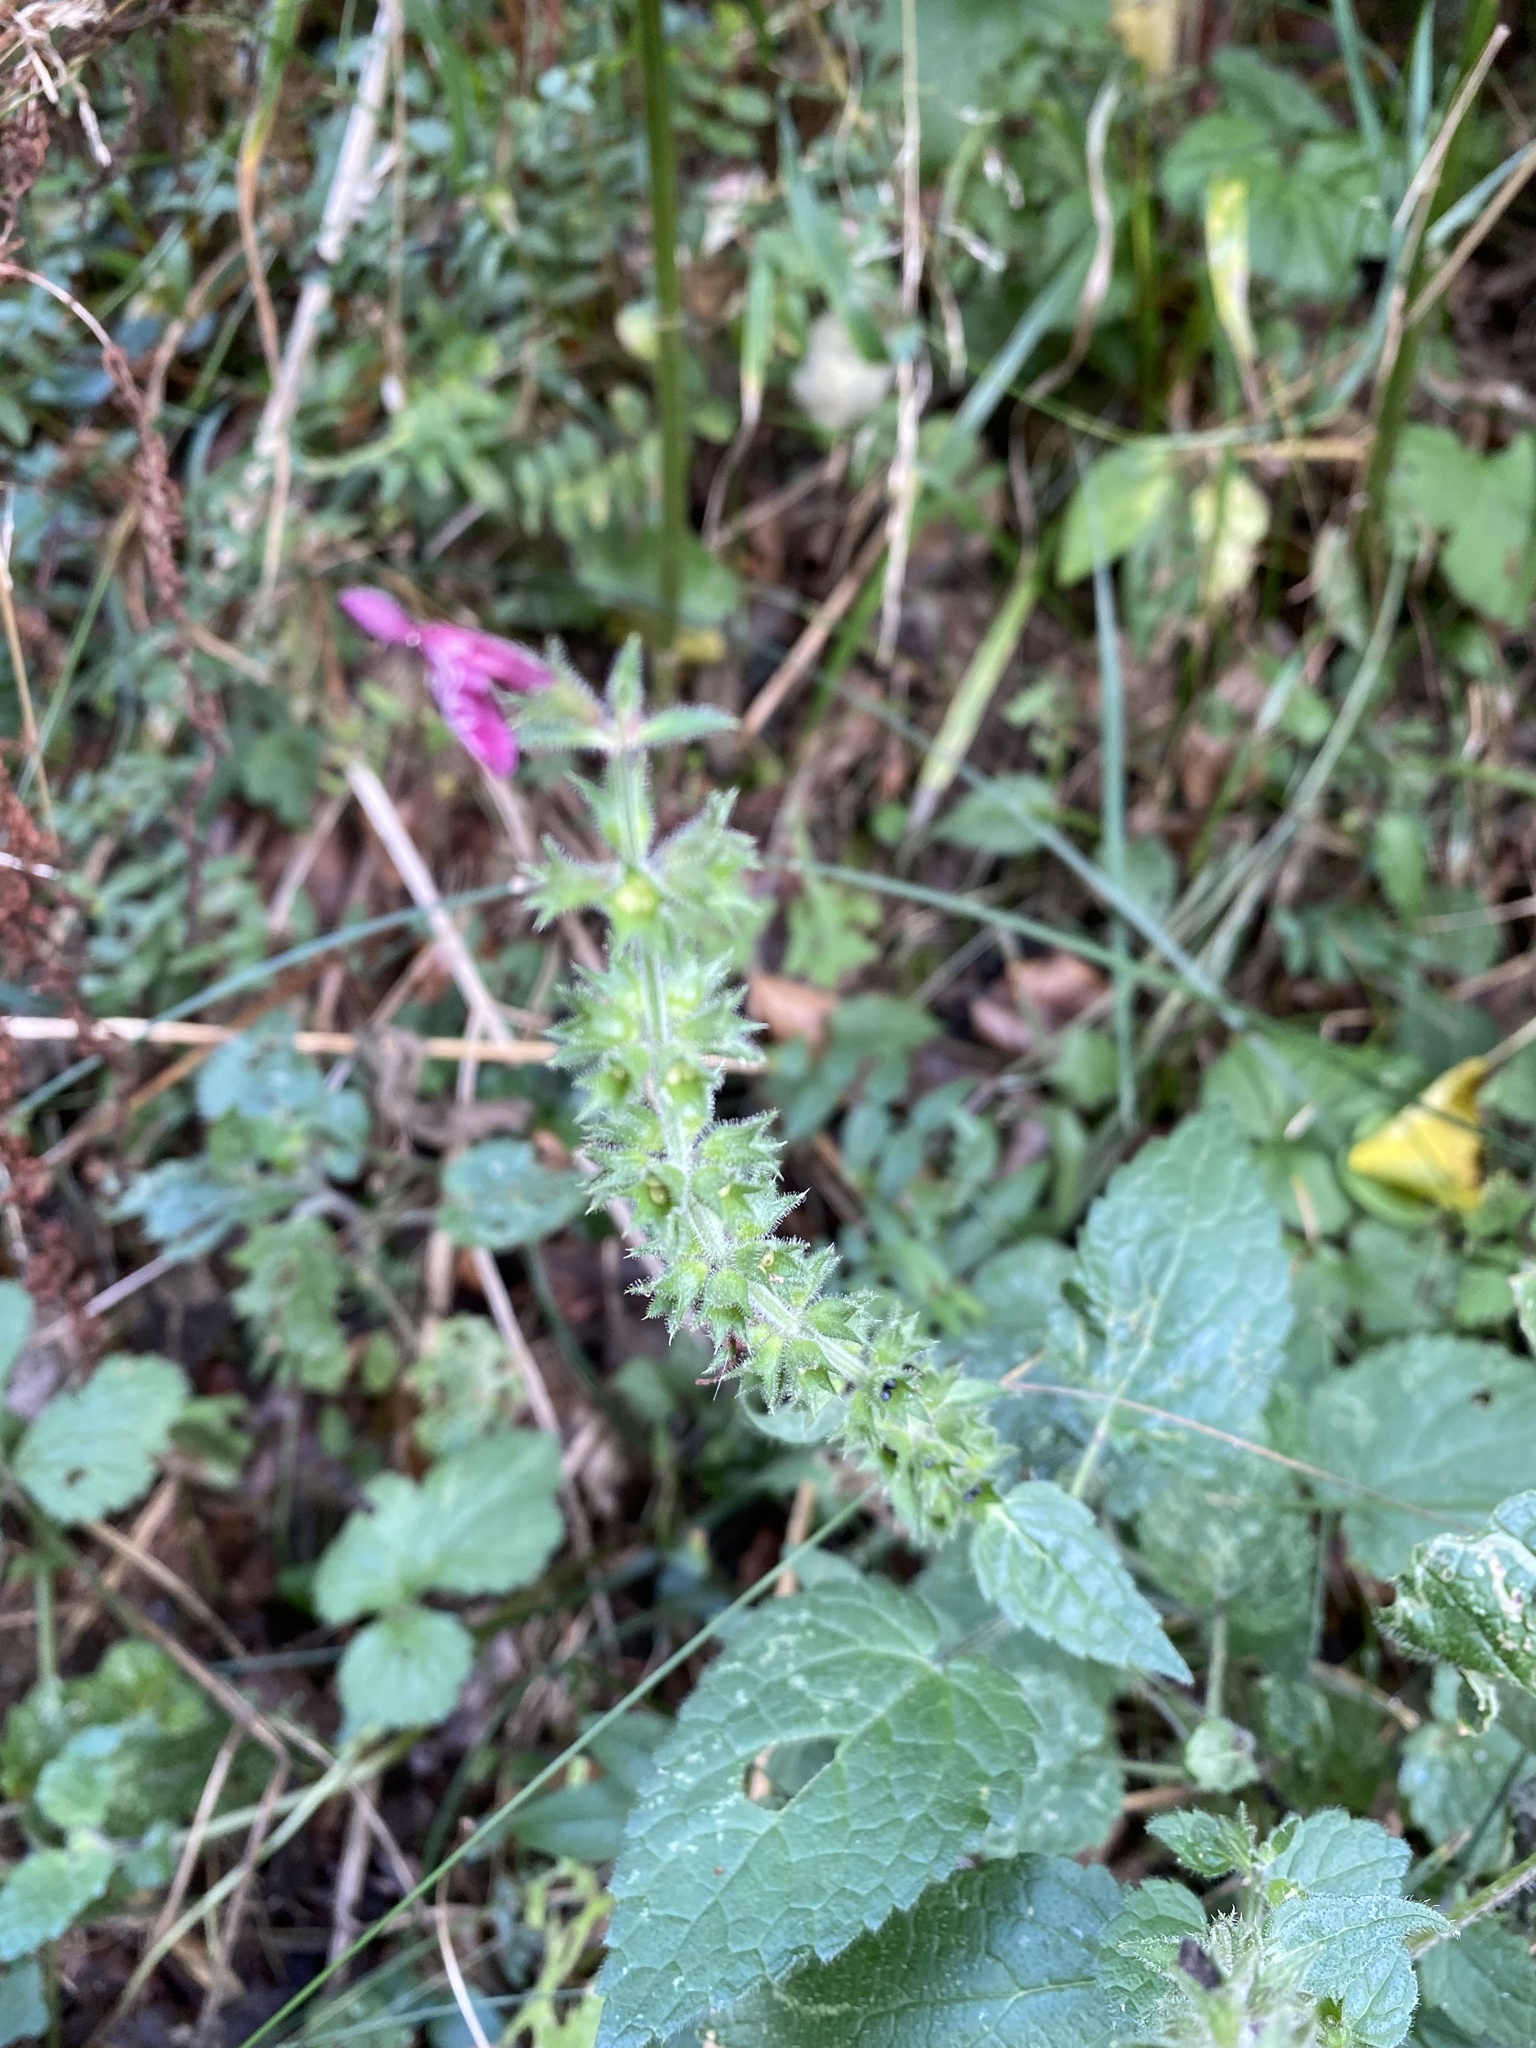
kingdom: Plantae
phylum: Tracheophyta
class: Magnoliopsida
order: Lamiales
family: Lamiaceae
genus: Stachys
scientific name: Stachys sylvatica
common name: Hedge woundwort
